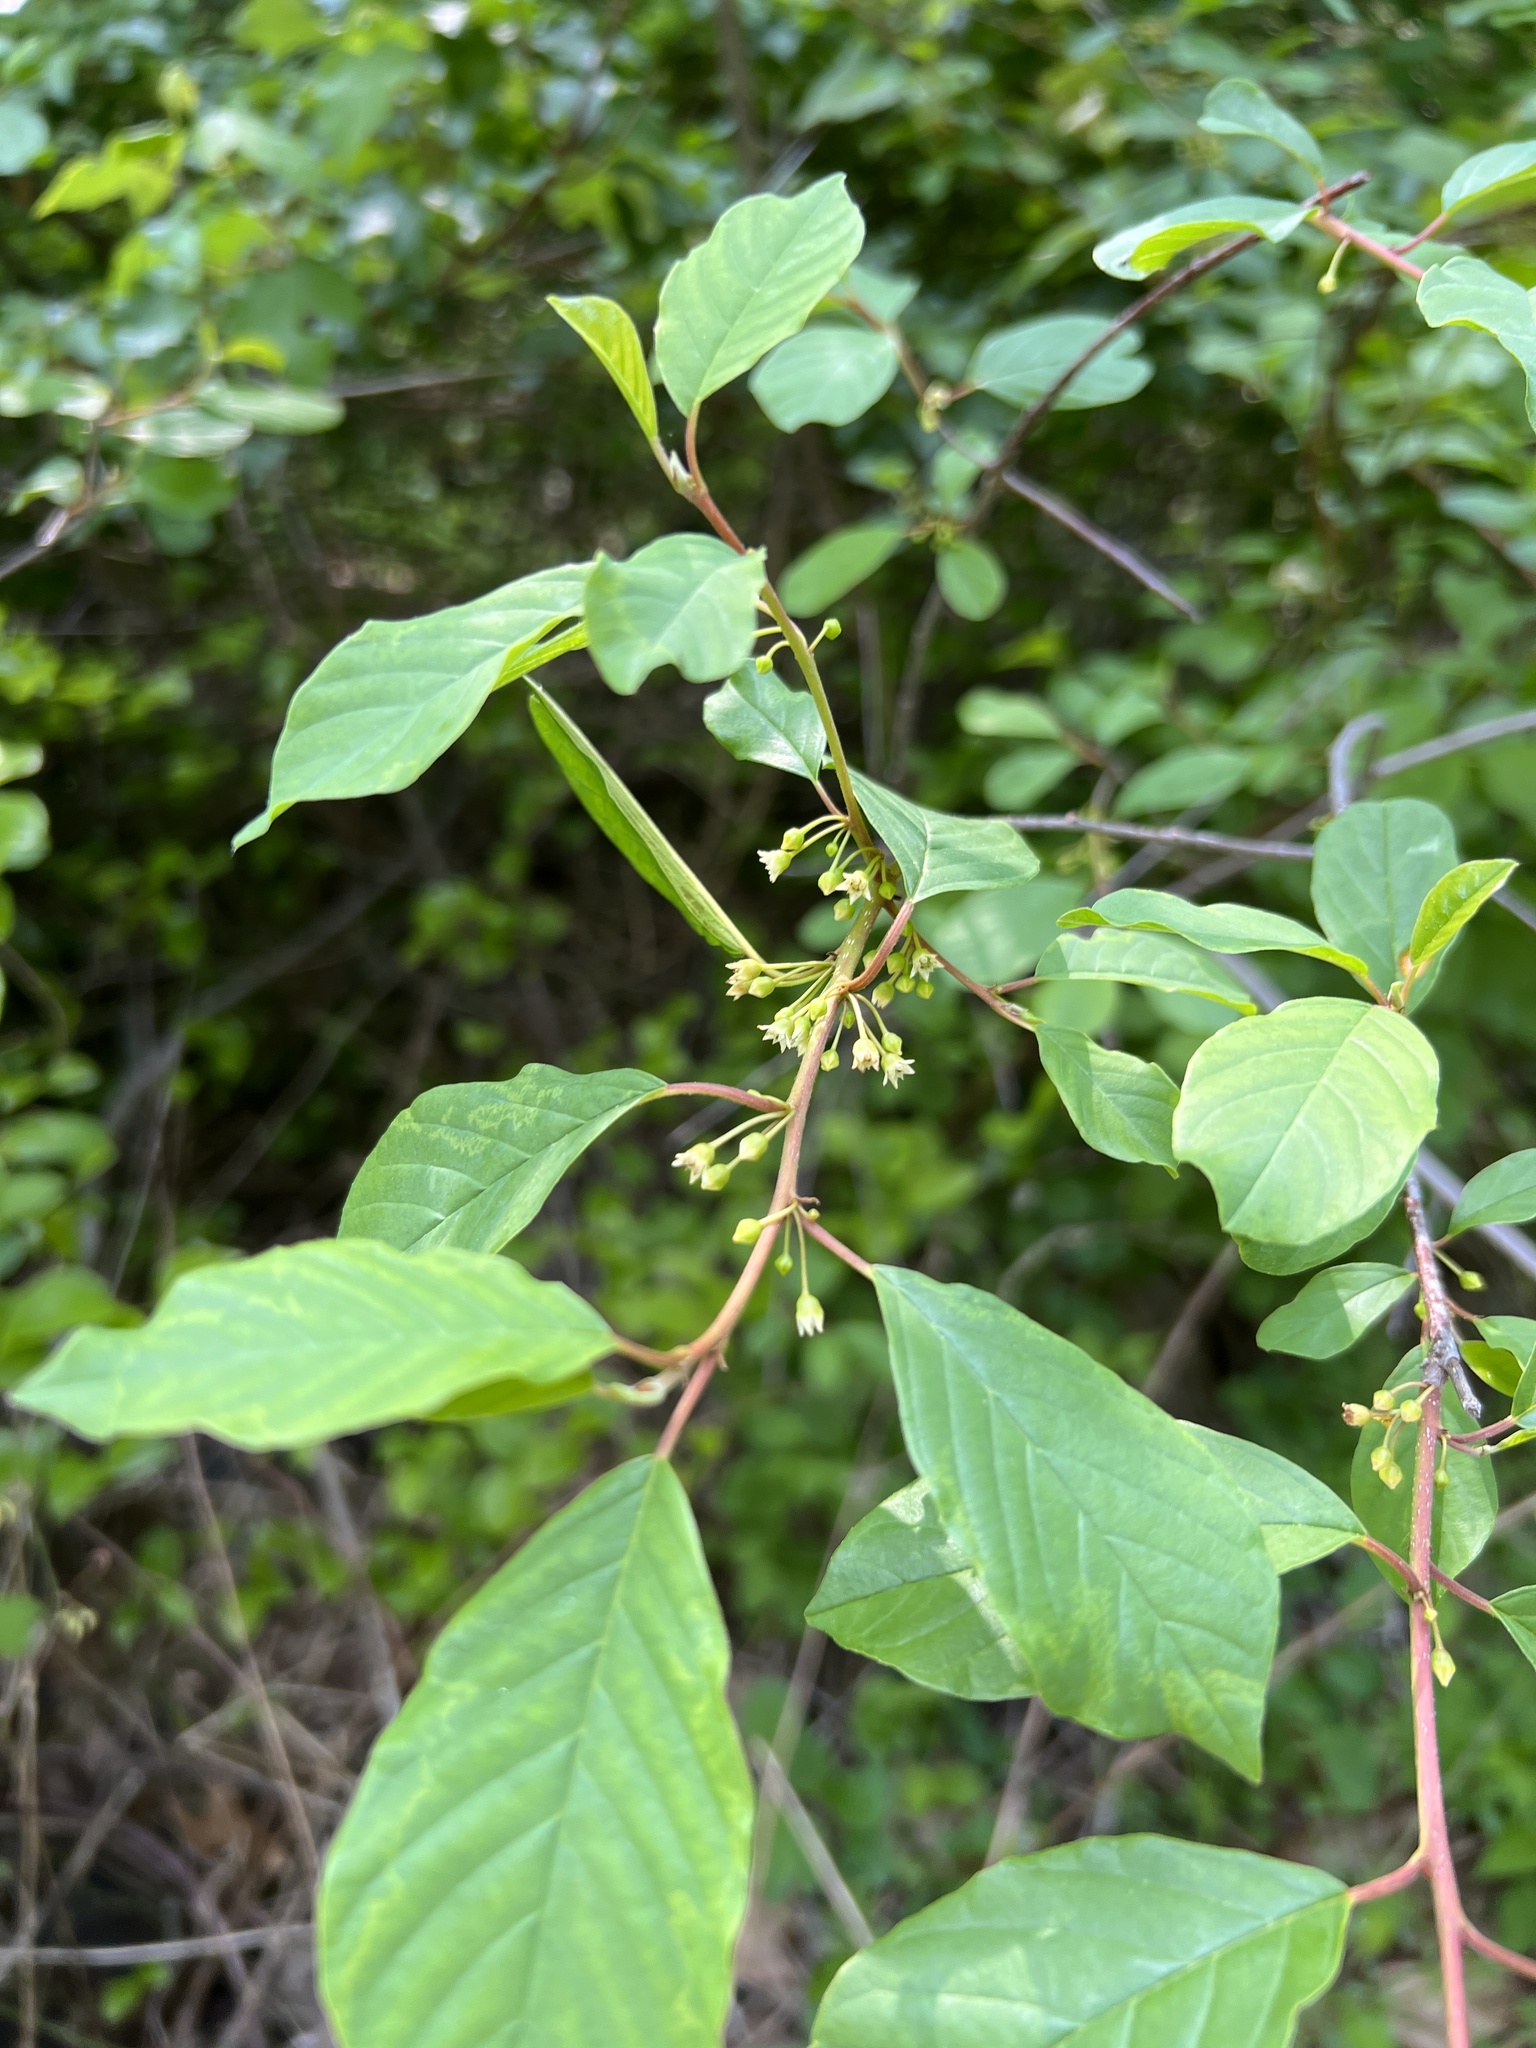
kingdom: Plantae
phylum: Tracheophyta
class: Magnoliopsida
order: Rosales
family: Rhamnaceae
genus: Frangula
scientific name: Frangula alnus
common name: Alder buckthorn
